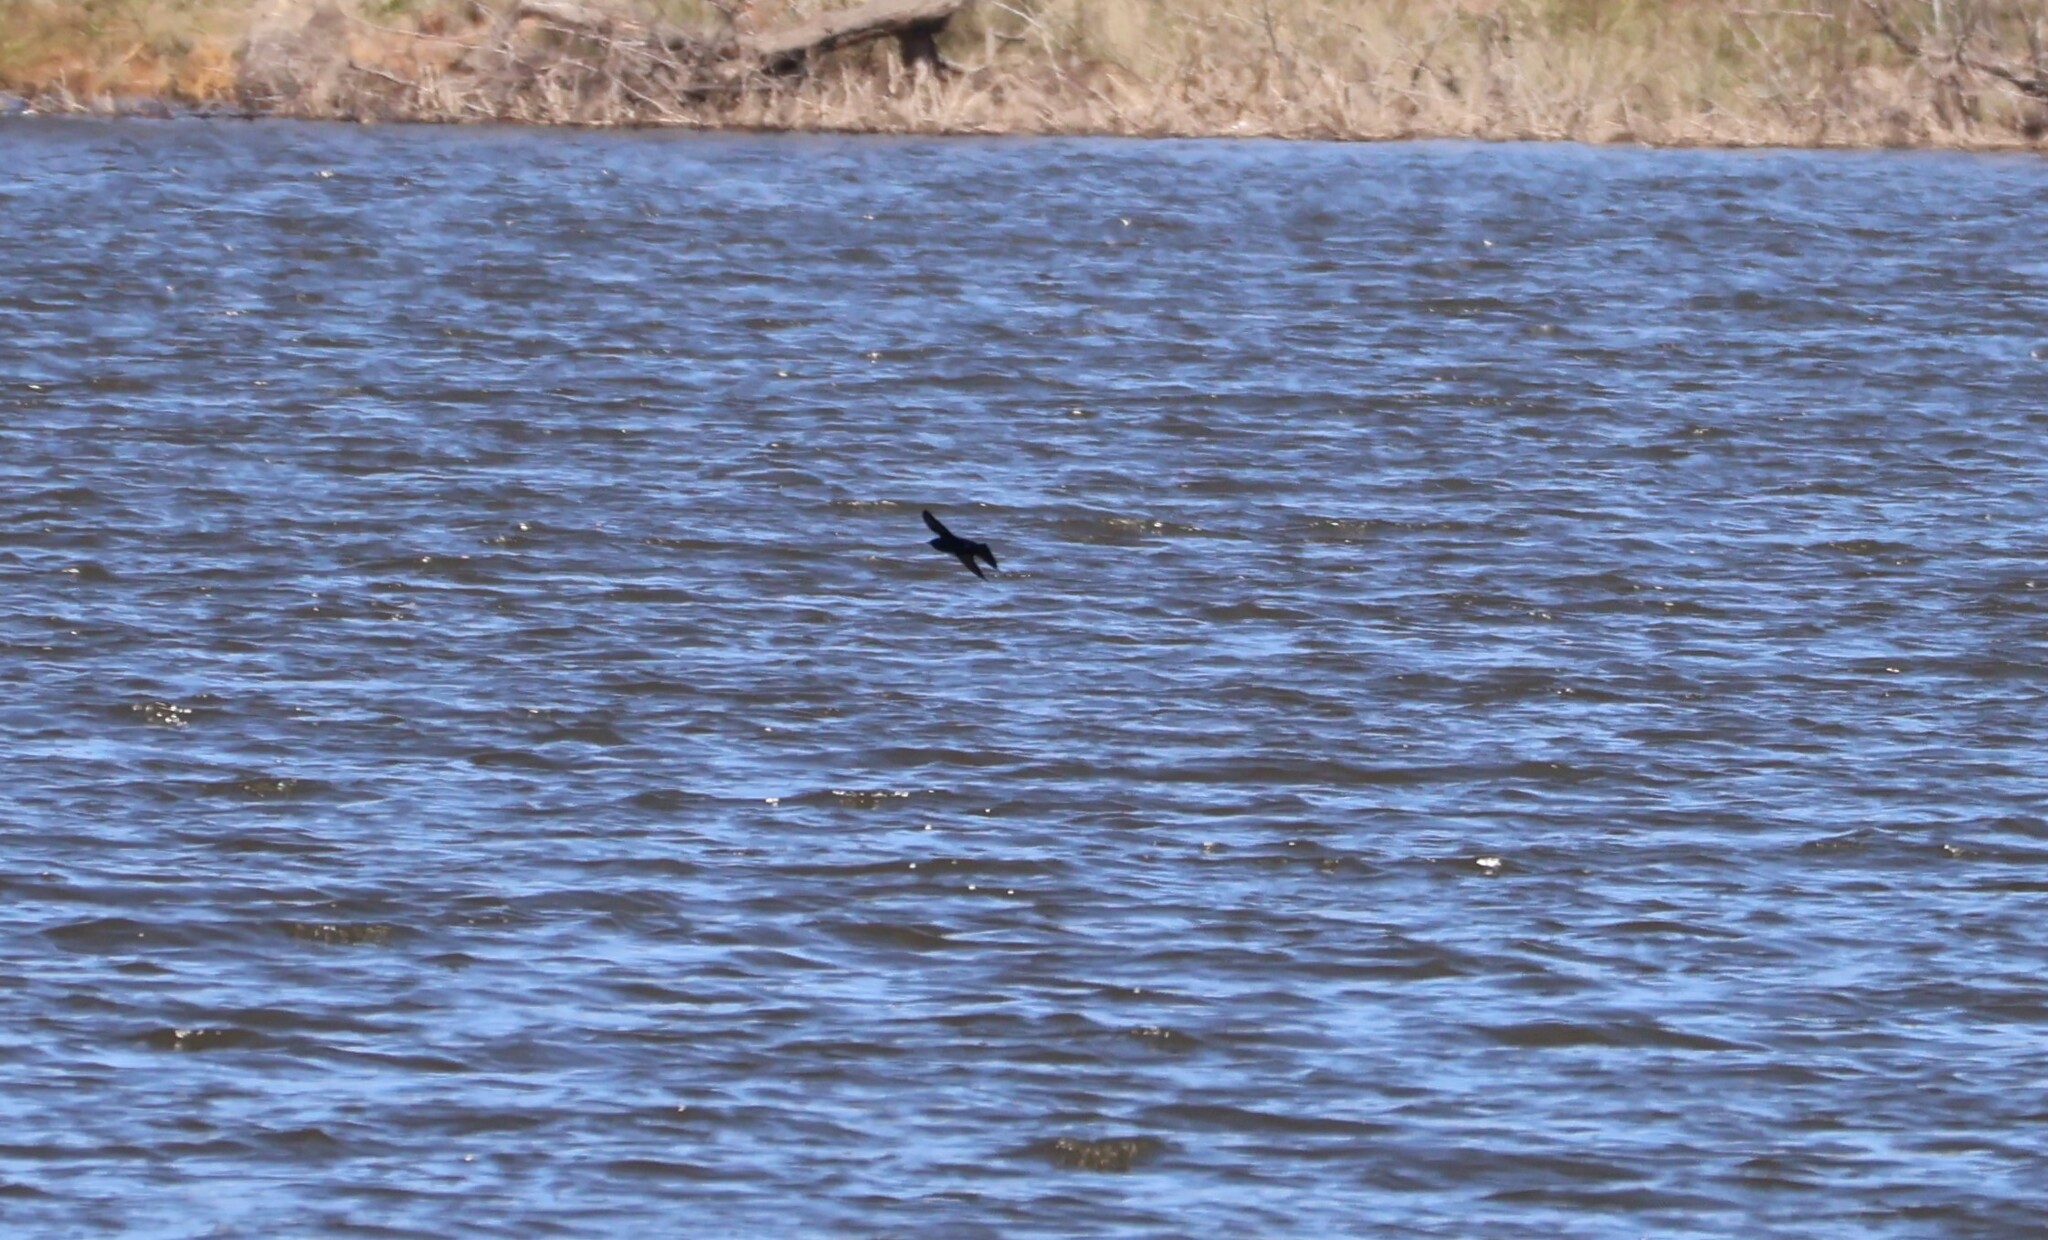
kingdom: Animalia
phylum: Chordata
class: Aves
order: Passeriformes
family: Hirundinidae
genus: Progne
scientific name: Progne subis
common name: Purple martin
